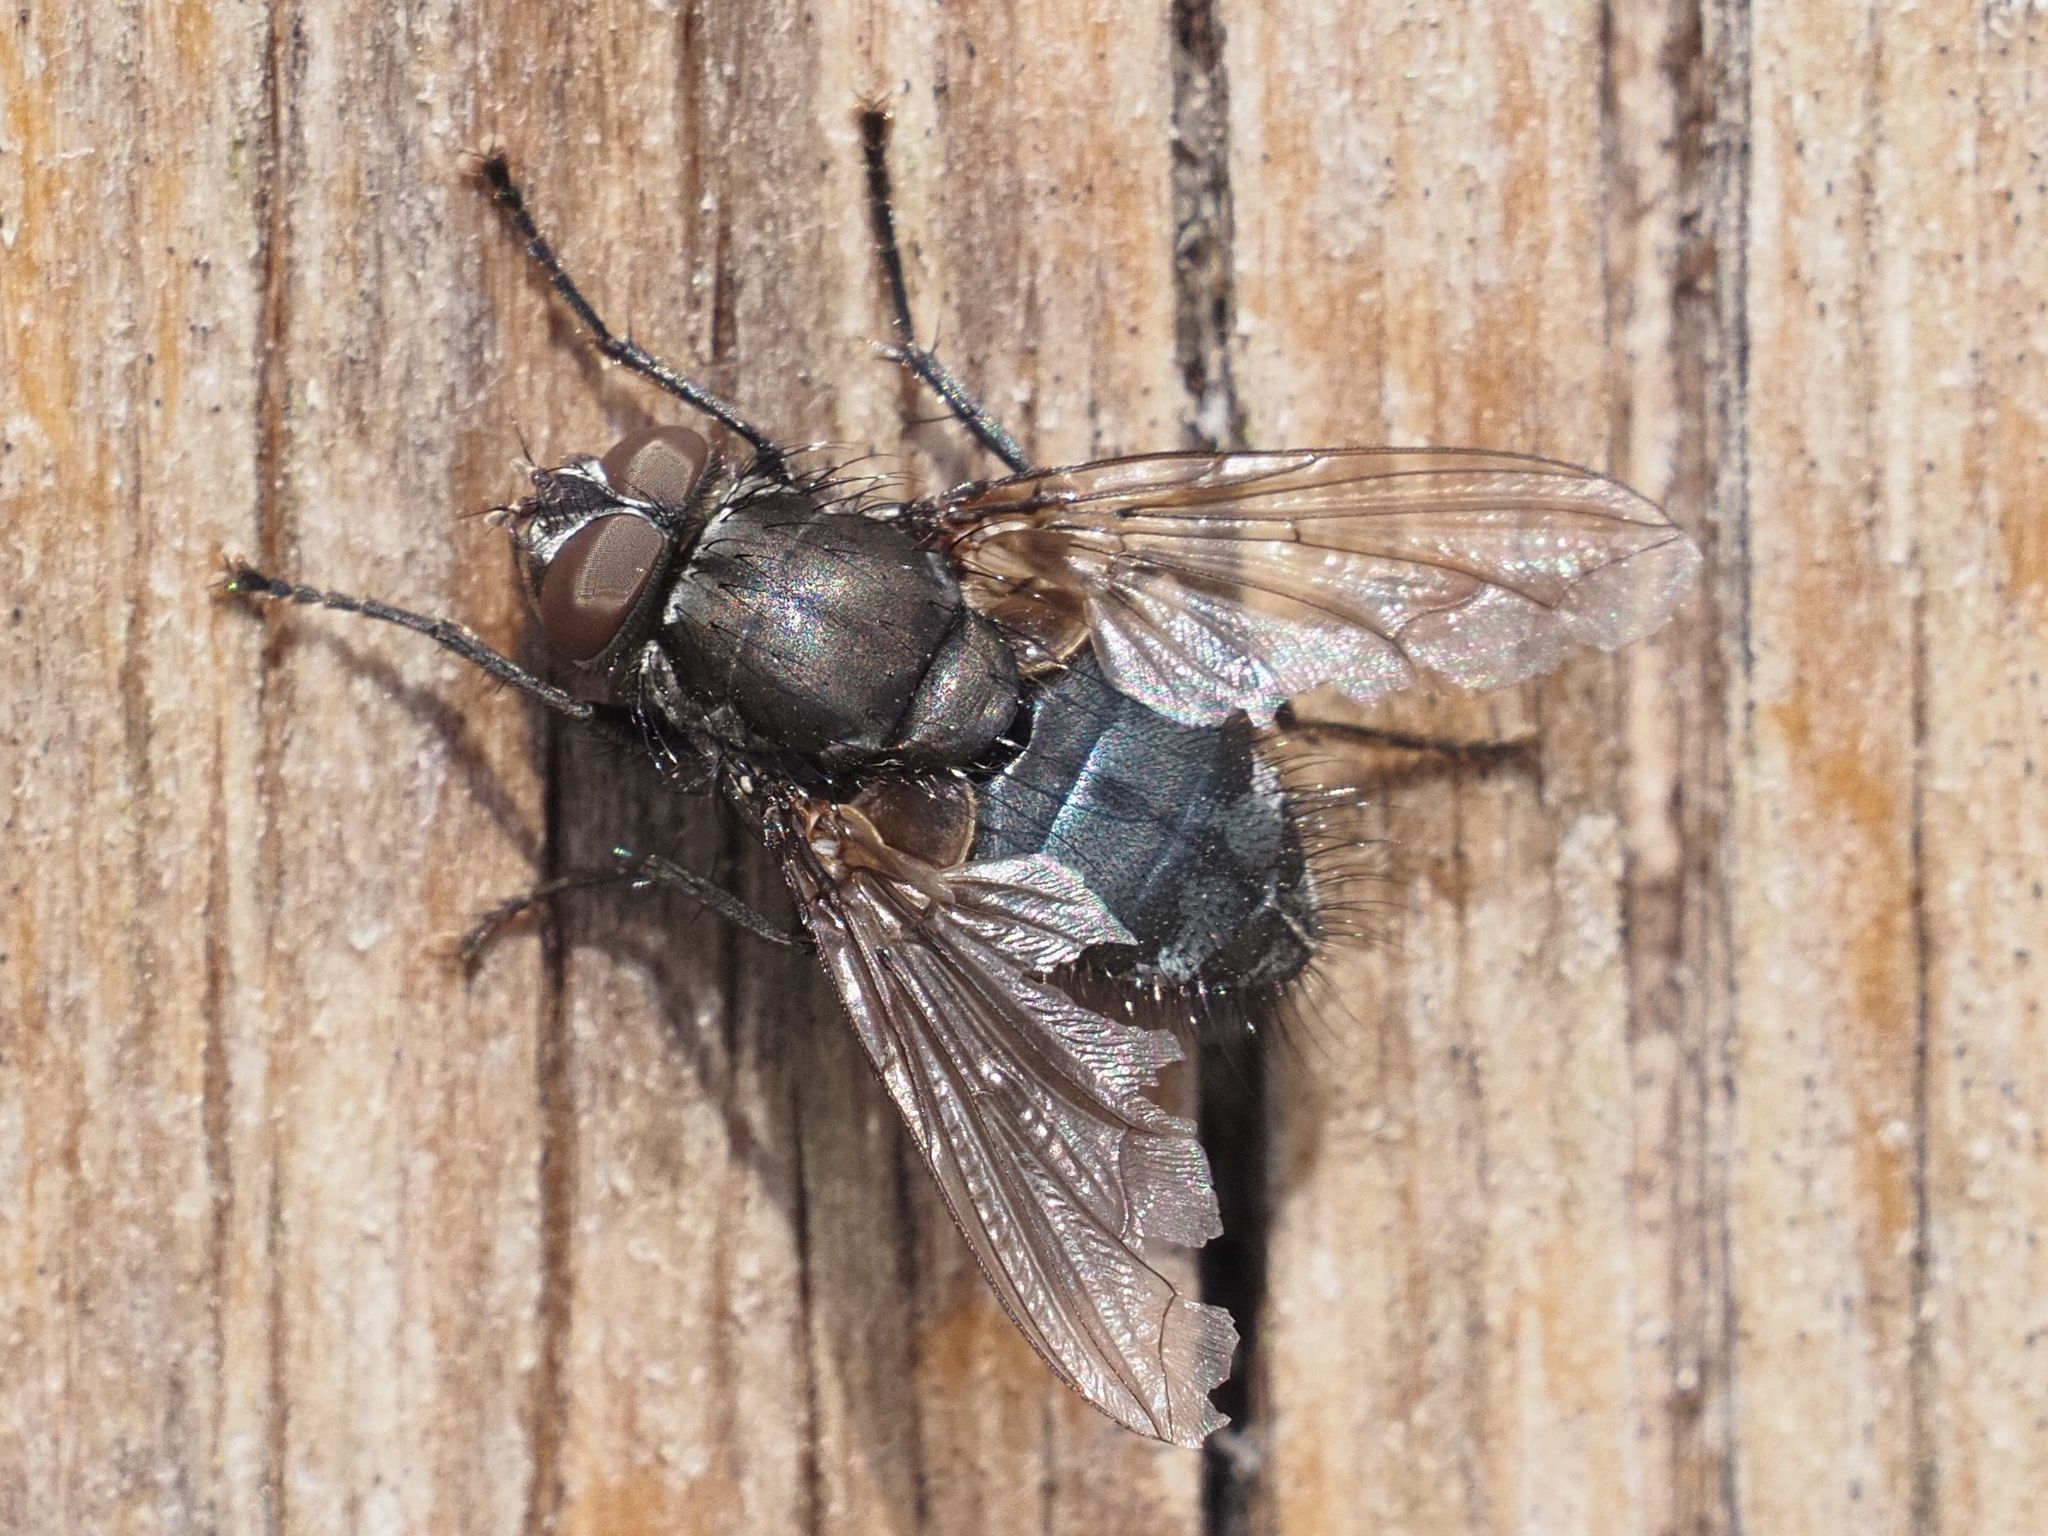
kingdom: Animalia
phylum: Arthropoda
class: Insecta
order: Diptera
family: Polleniidae
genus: Pollenia
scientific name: Pollenia vagabunda
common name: Vagabund cluster fly
